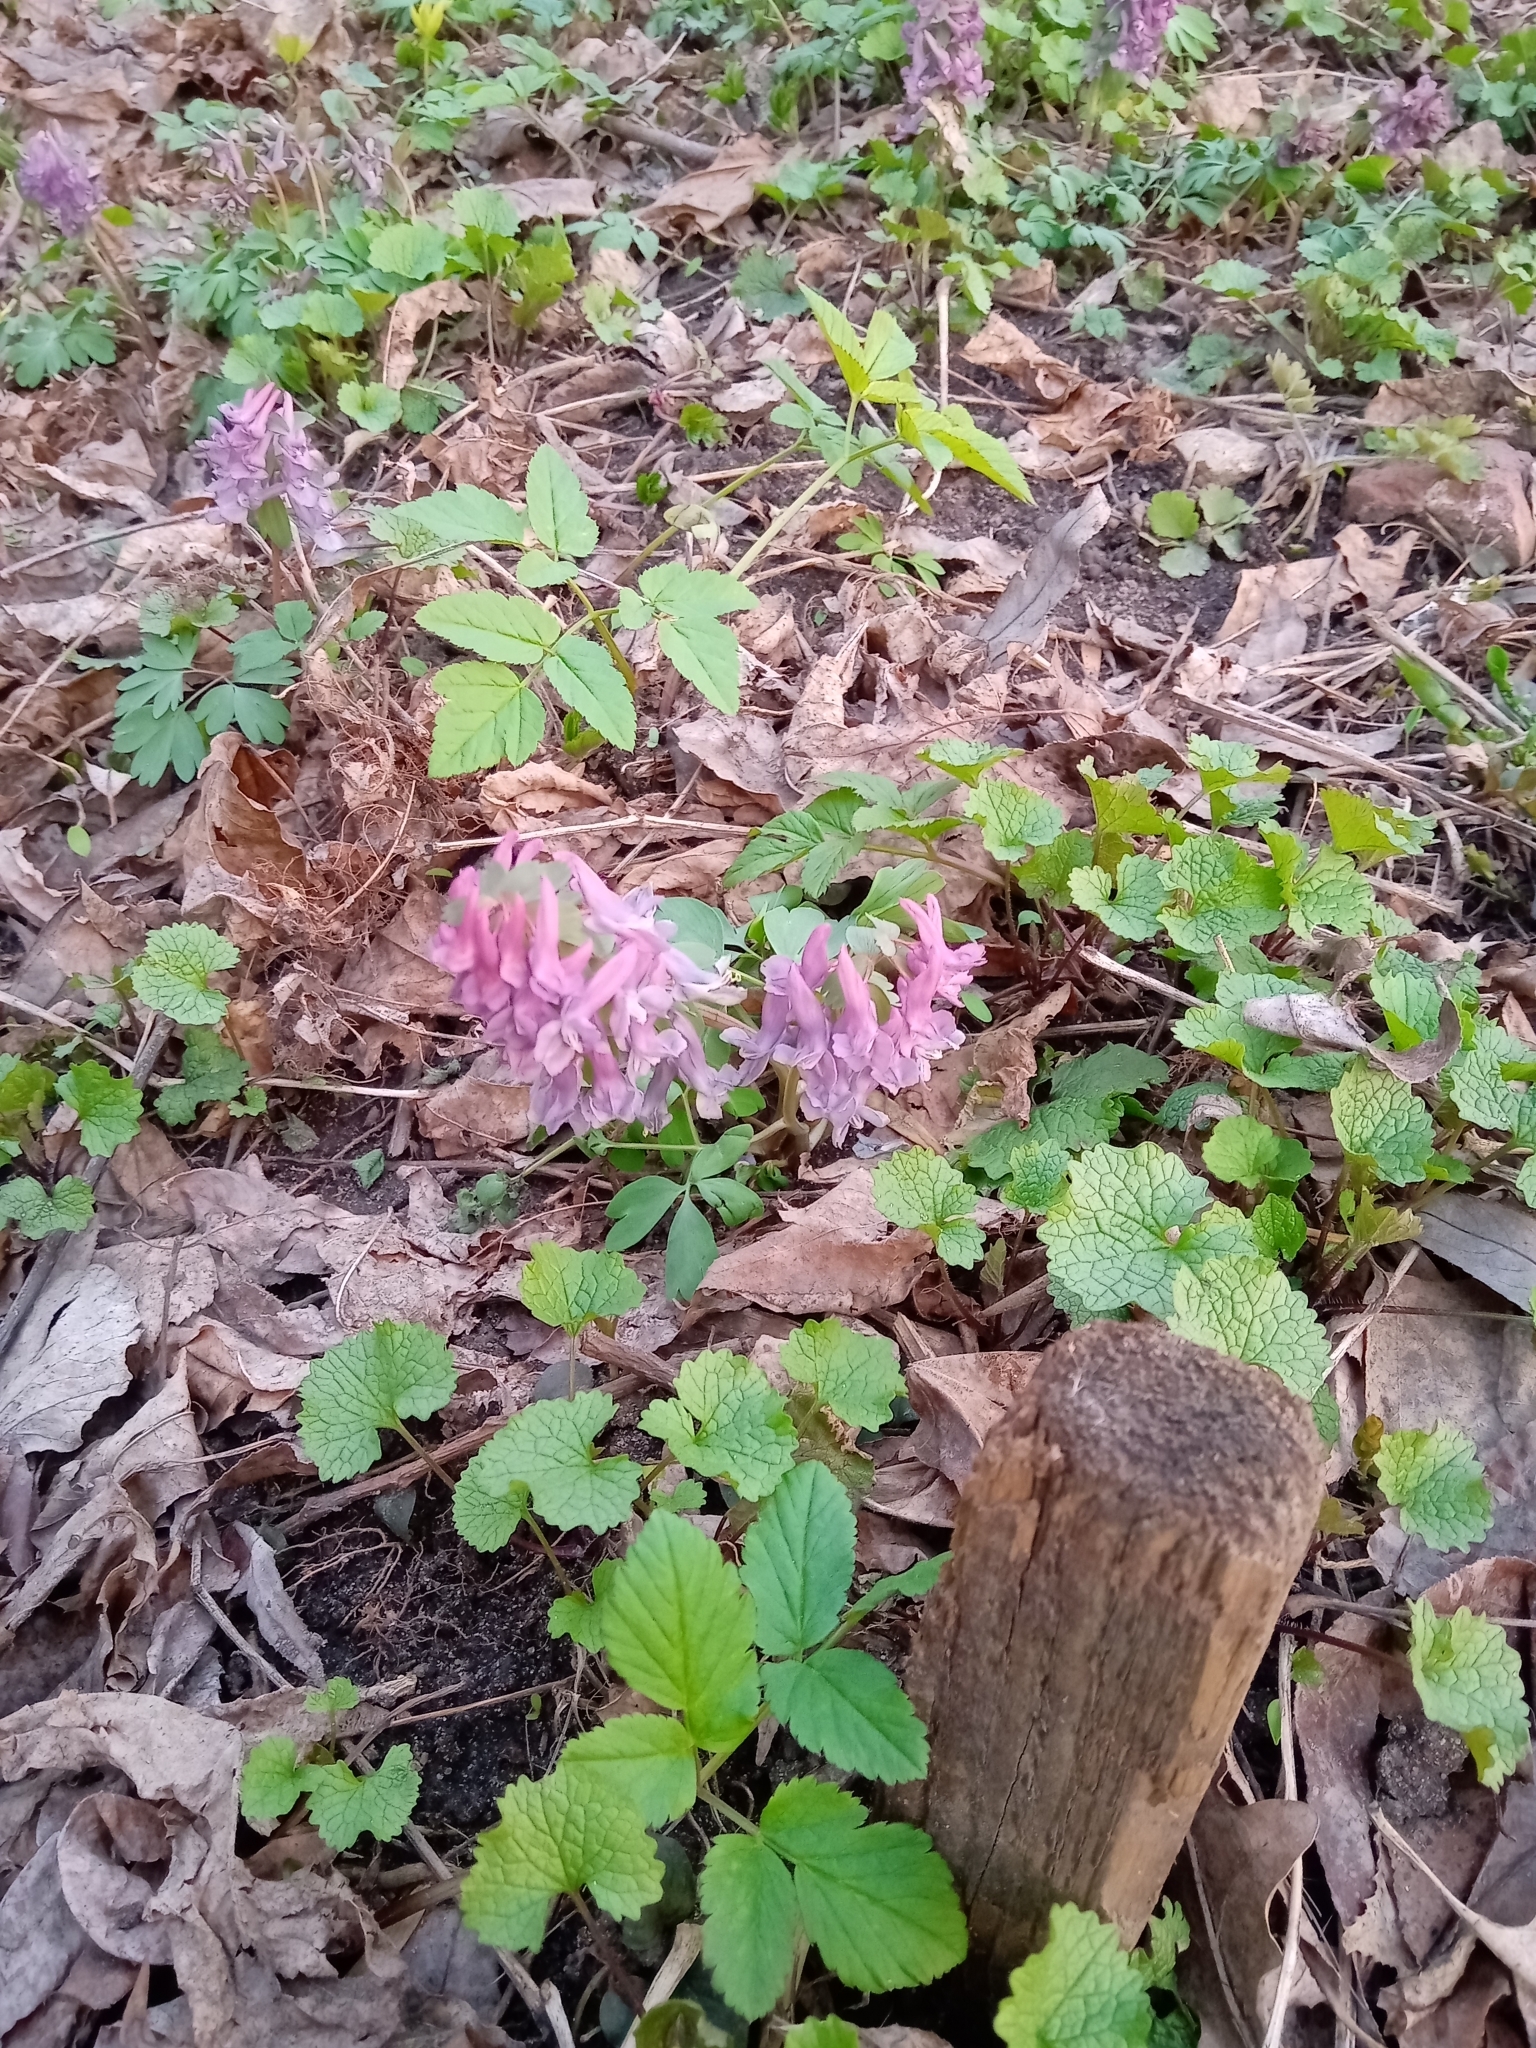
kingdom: Plantae
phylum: Tracheophyta
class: Magnoliopsida
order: Ranunculales
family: Papaveraceae
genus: Corydalis
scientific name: Corydalis solida
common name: Bird-in-a-bush
